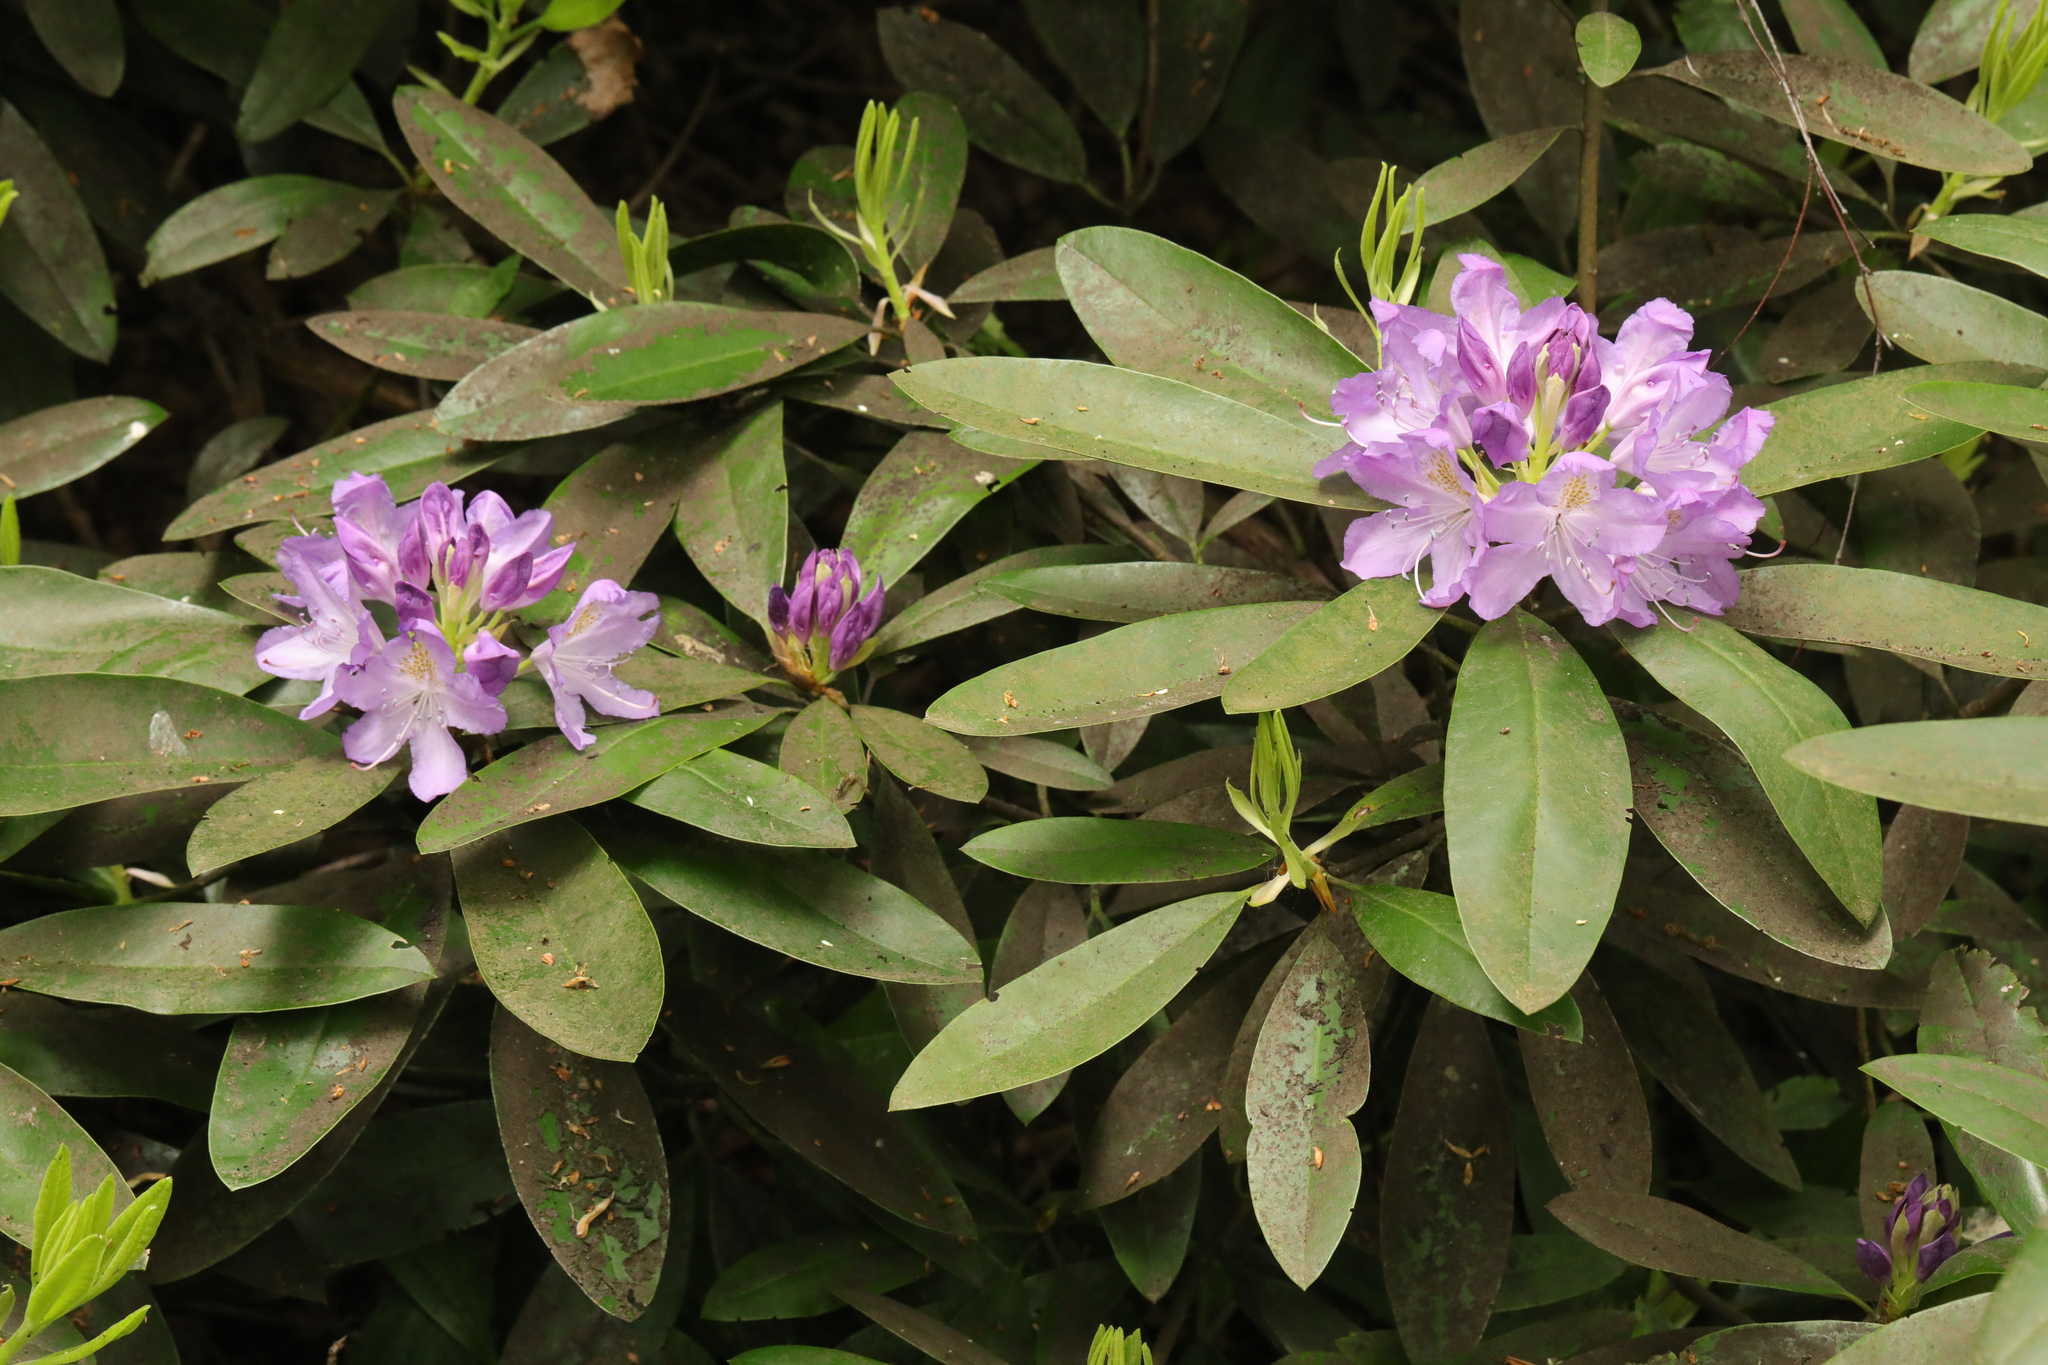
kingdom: Plantae
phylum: Tracheophyta
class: Magnoliopsida
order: Ericales
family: Ericaceae
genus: Rhododendron
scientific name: Rhododendron ponticum
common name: Rhododendron
